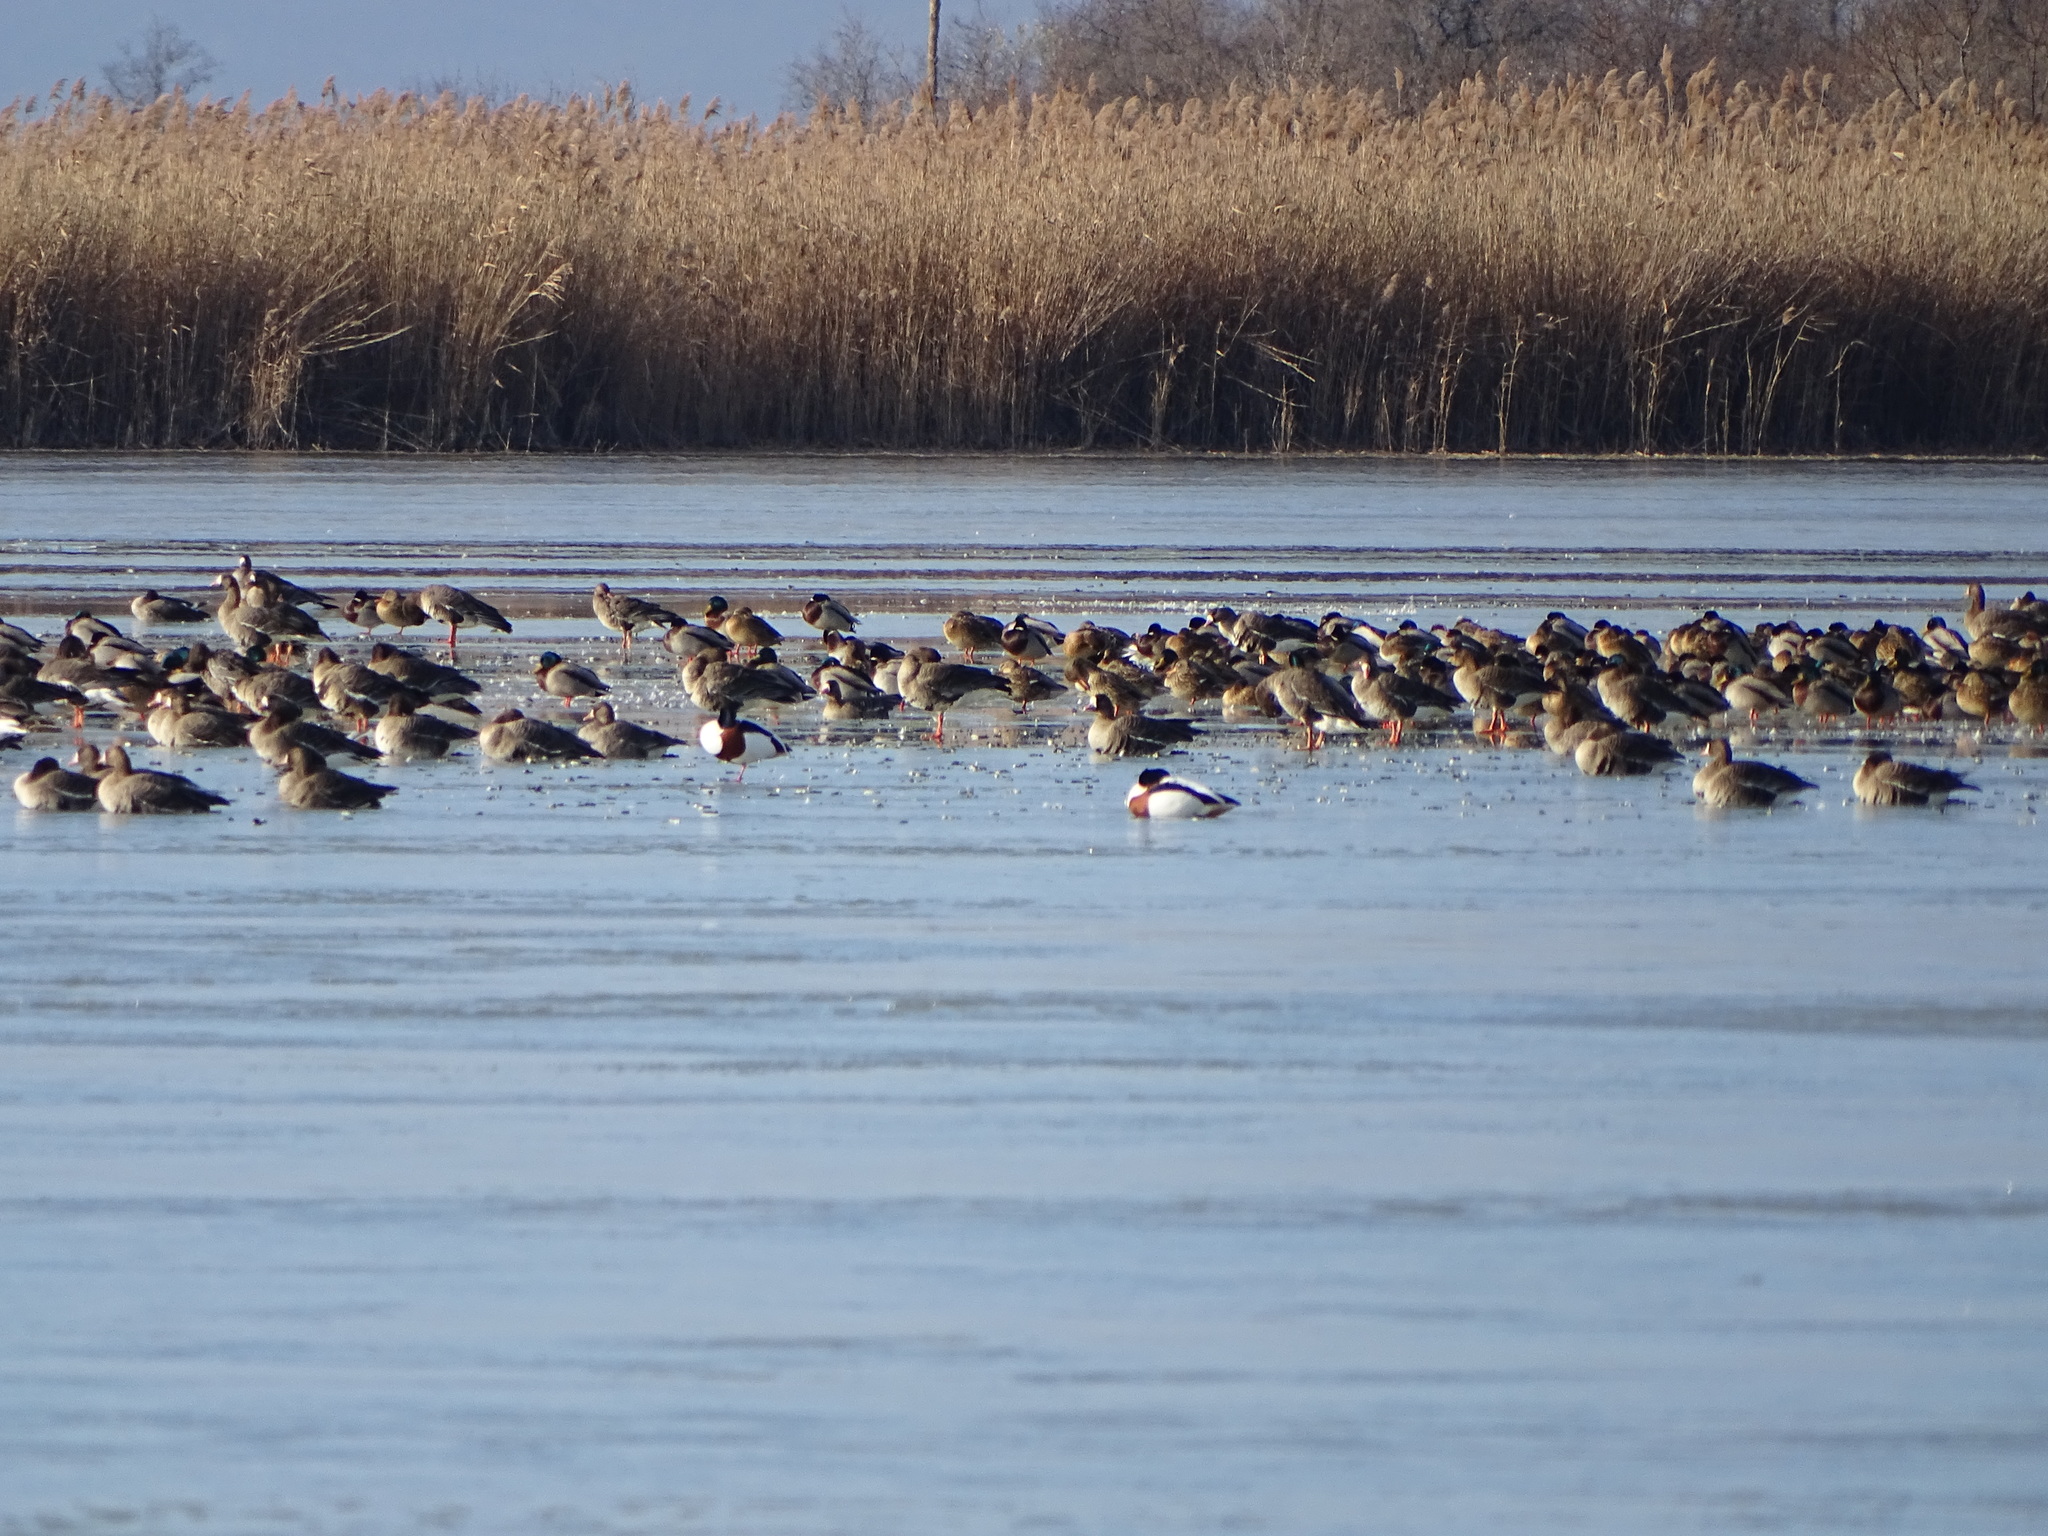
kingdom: Animalia
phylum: Chordata
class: Aves
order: Anseriformes
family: Anatidae
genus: Tadorna
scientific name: Tadorna tadorna
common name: Common shelduck
